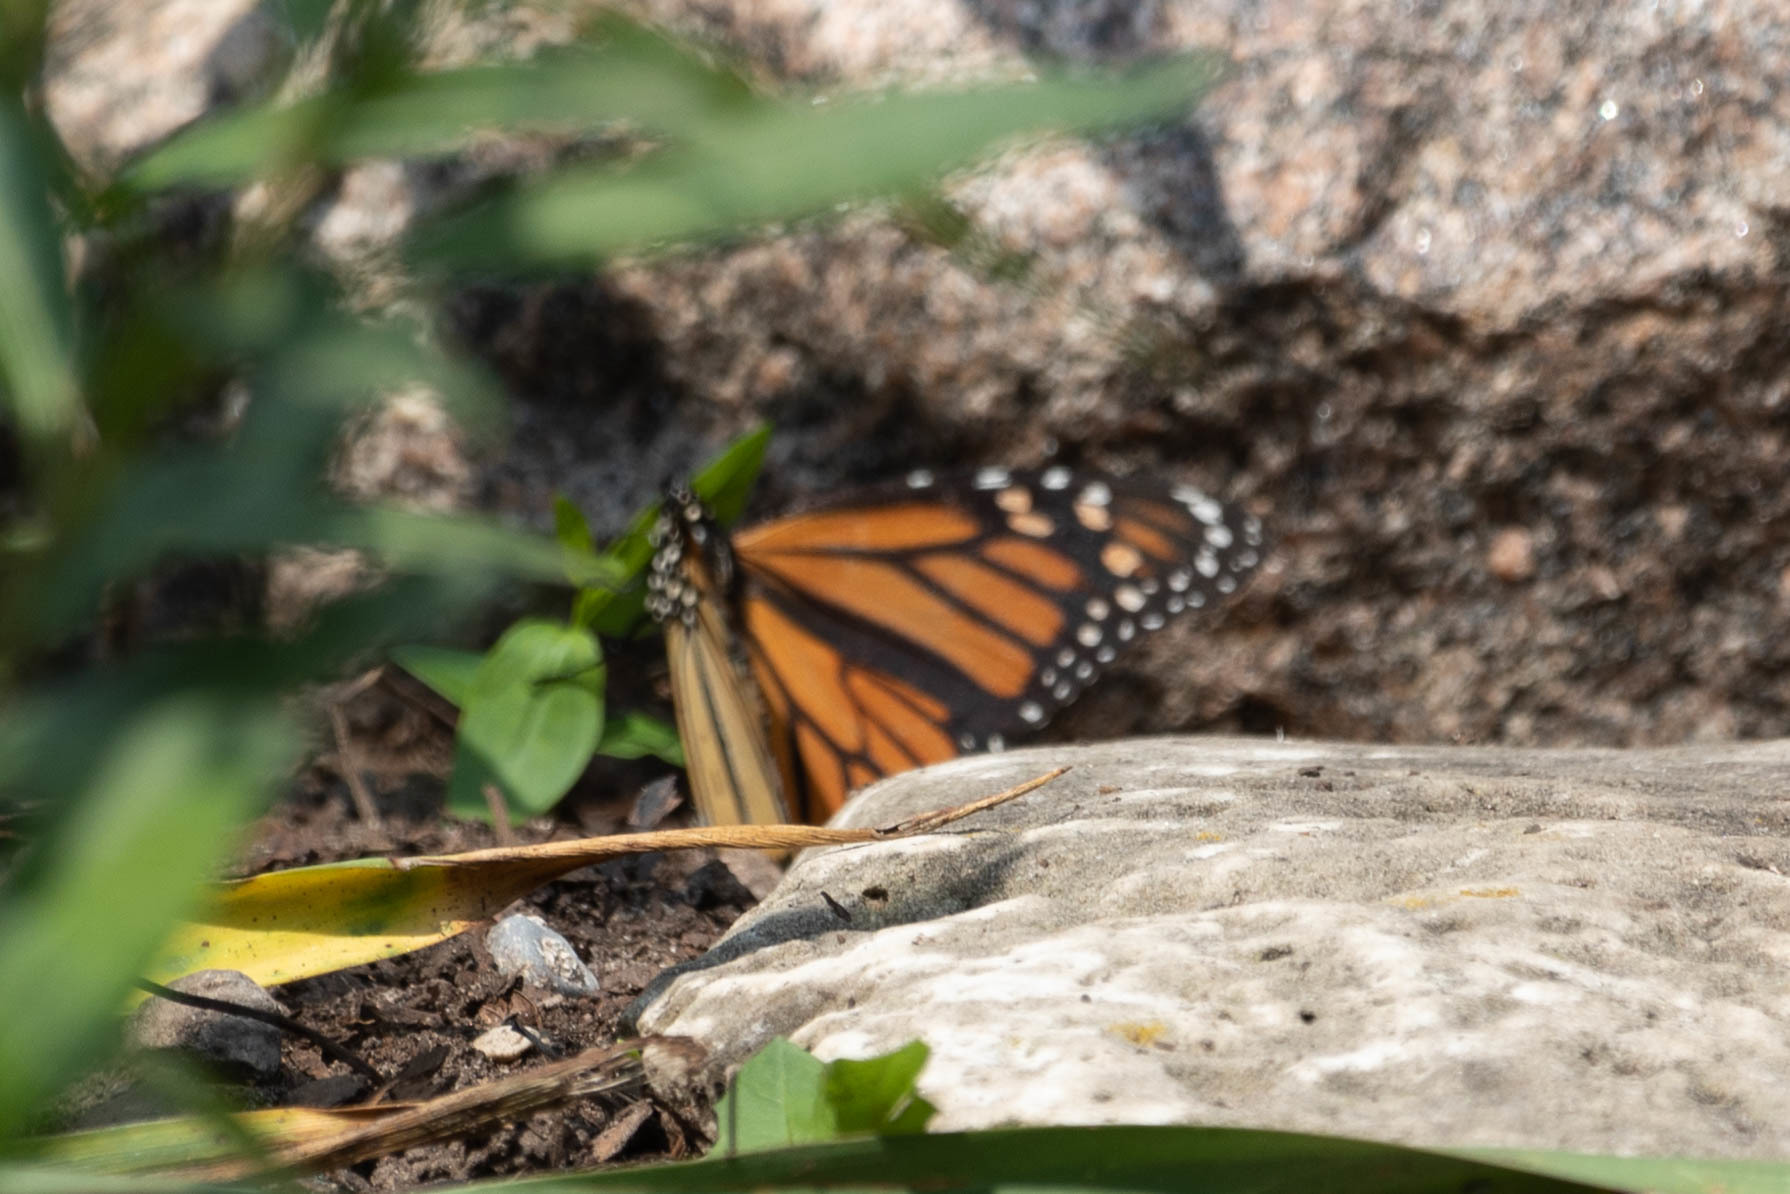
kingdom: Animalia
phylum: Arthropoda
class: Insecta
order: Lepidoptera
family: Nymphalidae
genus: Danaus
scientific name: Danaus plexippus
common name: Monarch
